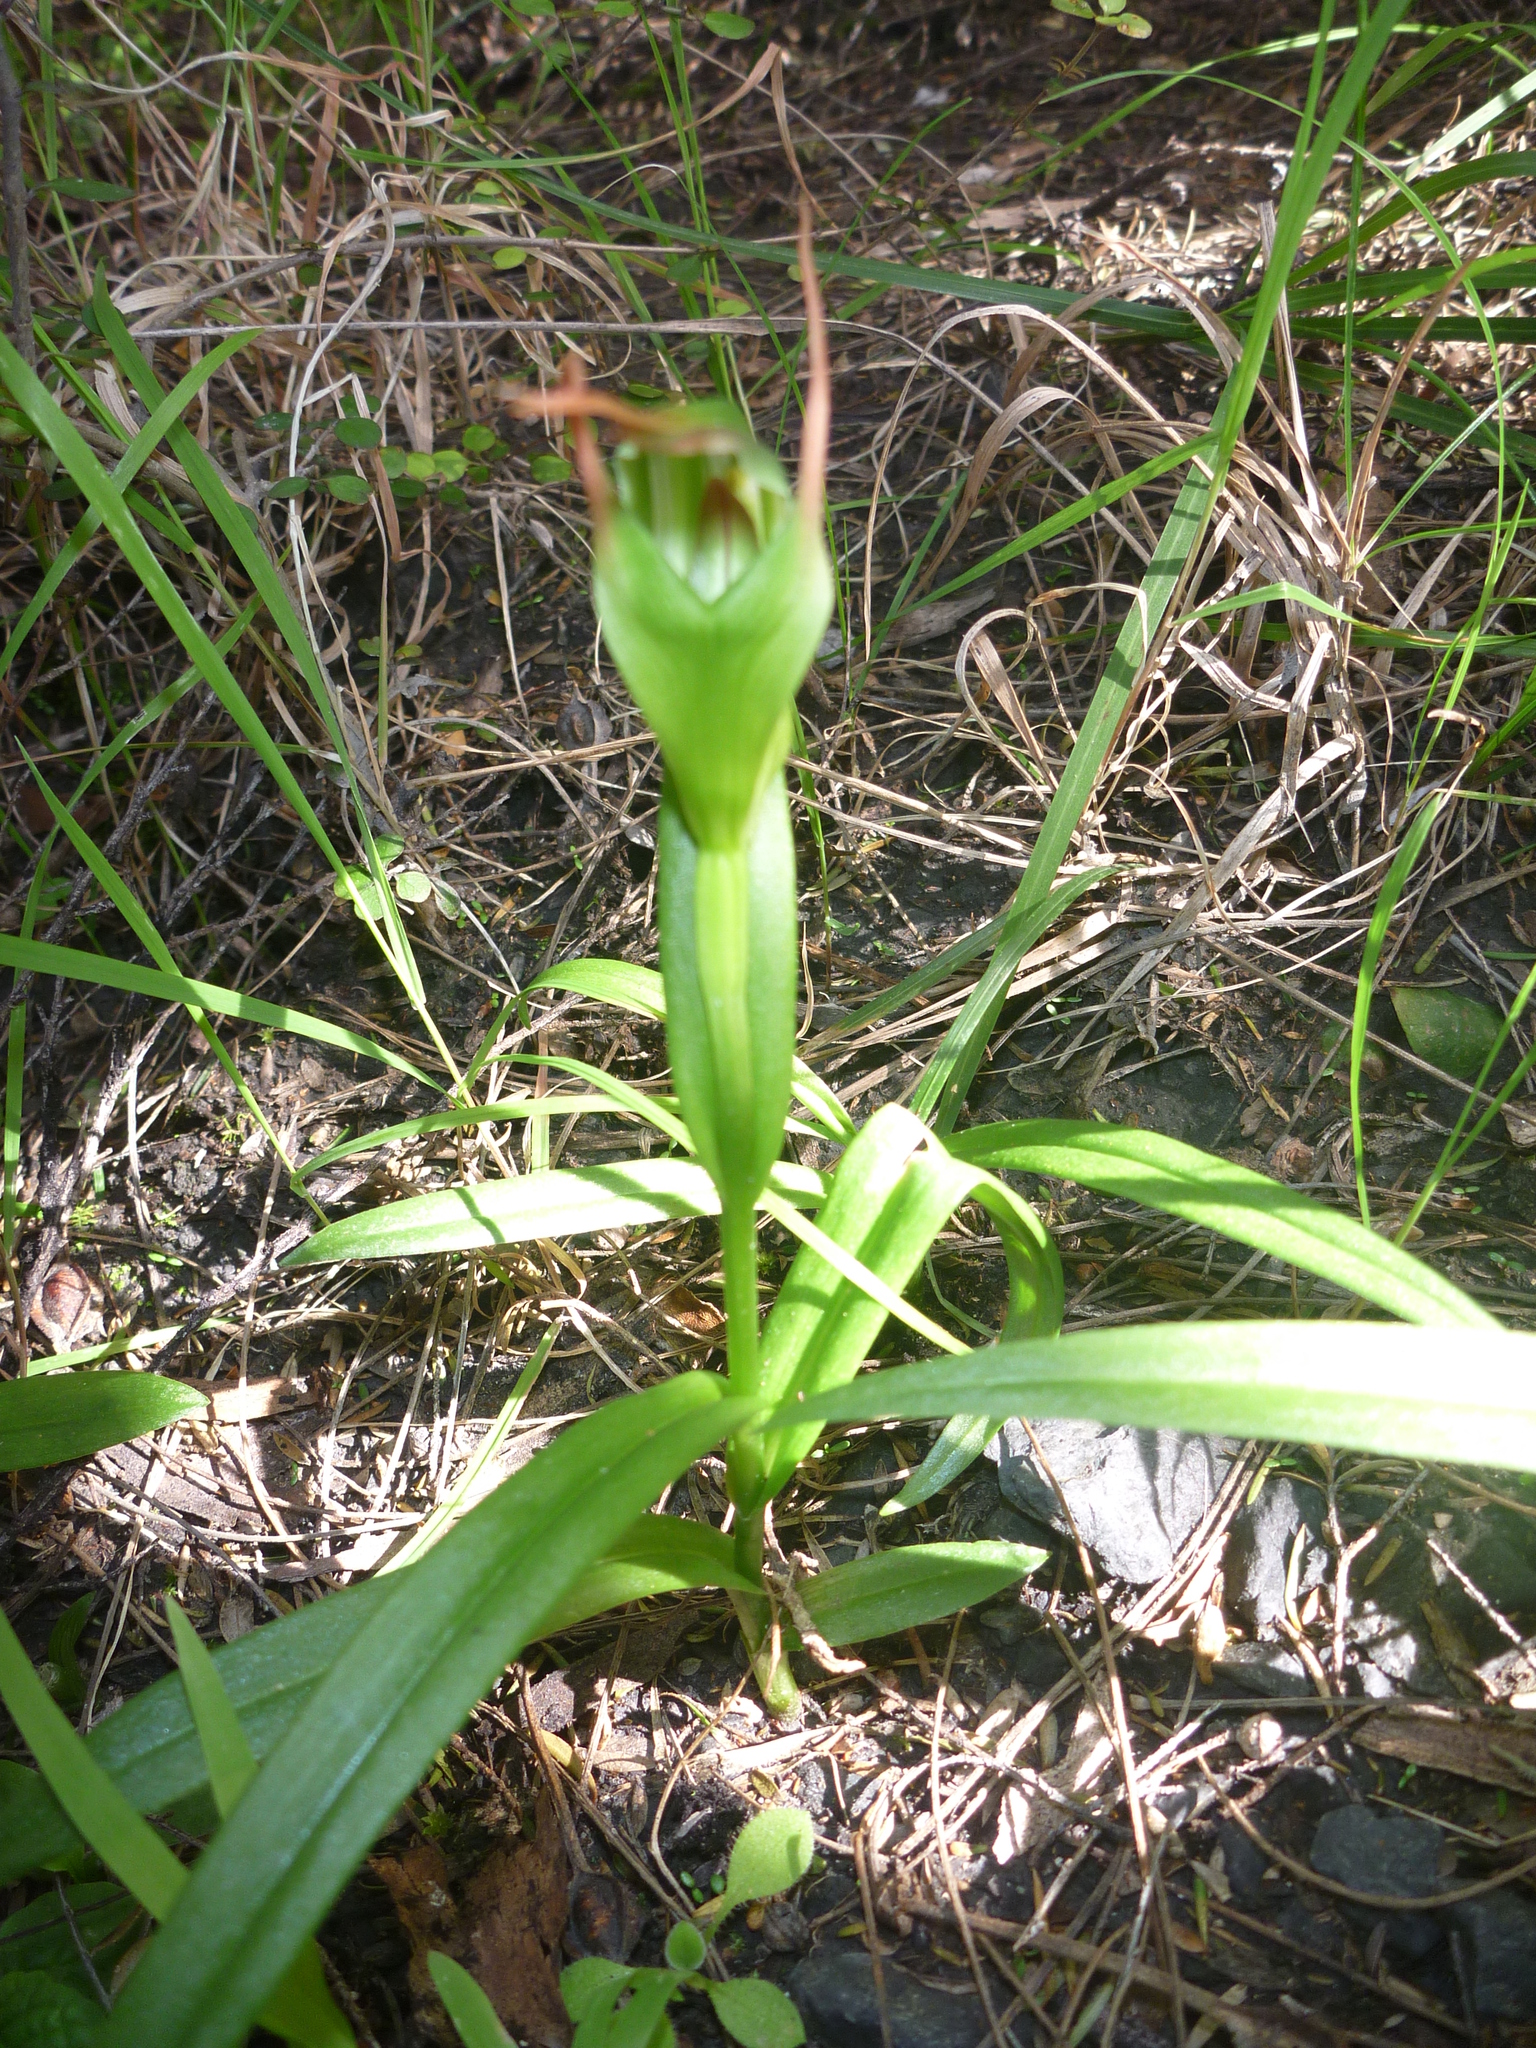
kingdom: Plantae
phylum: Tracheophyta
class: Liliopsida
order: Asparagales
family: Orchidaceae
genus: Pterostylis
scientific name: Pterostylis banksii
